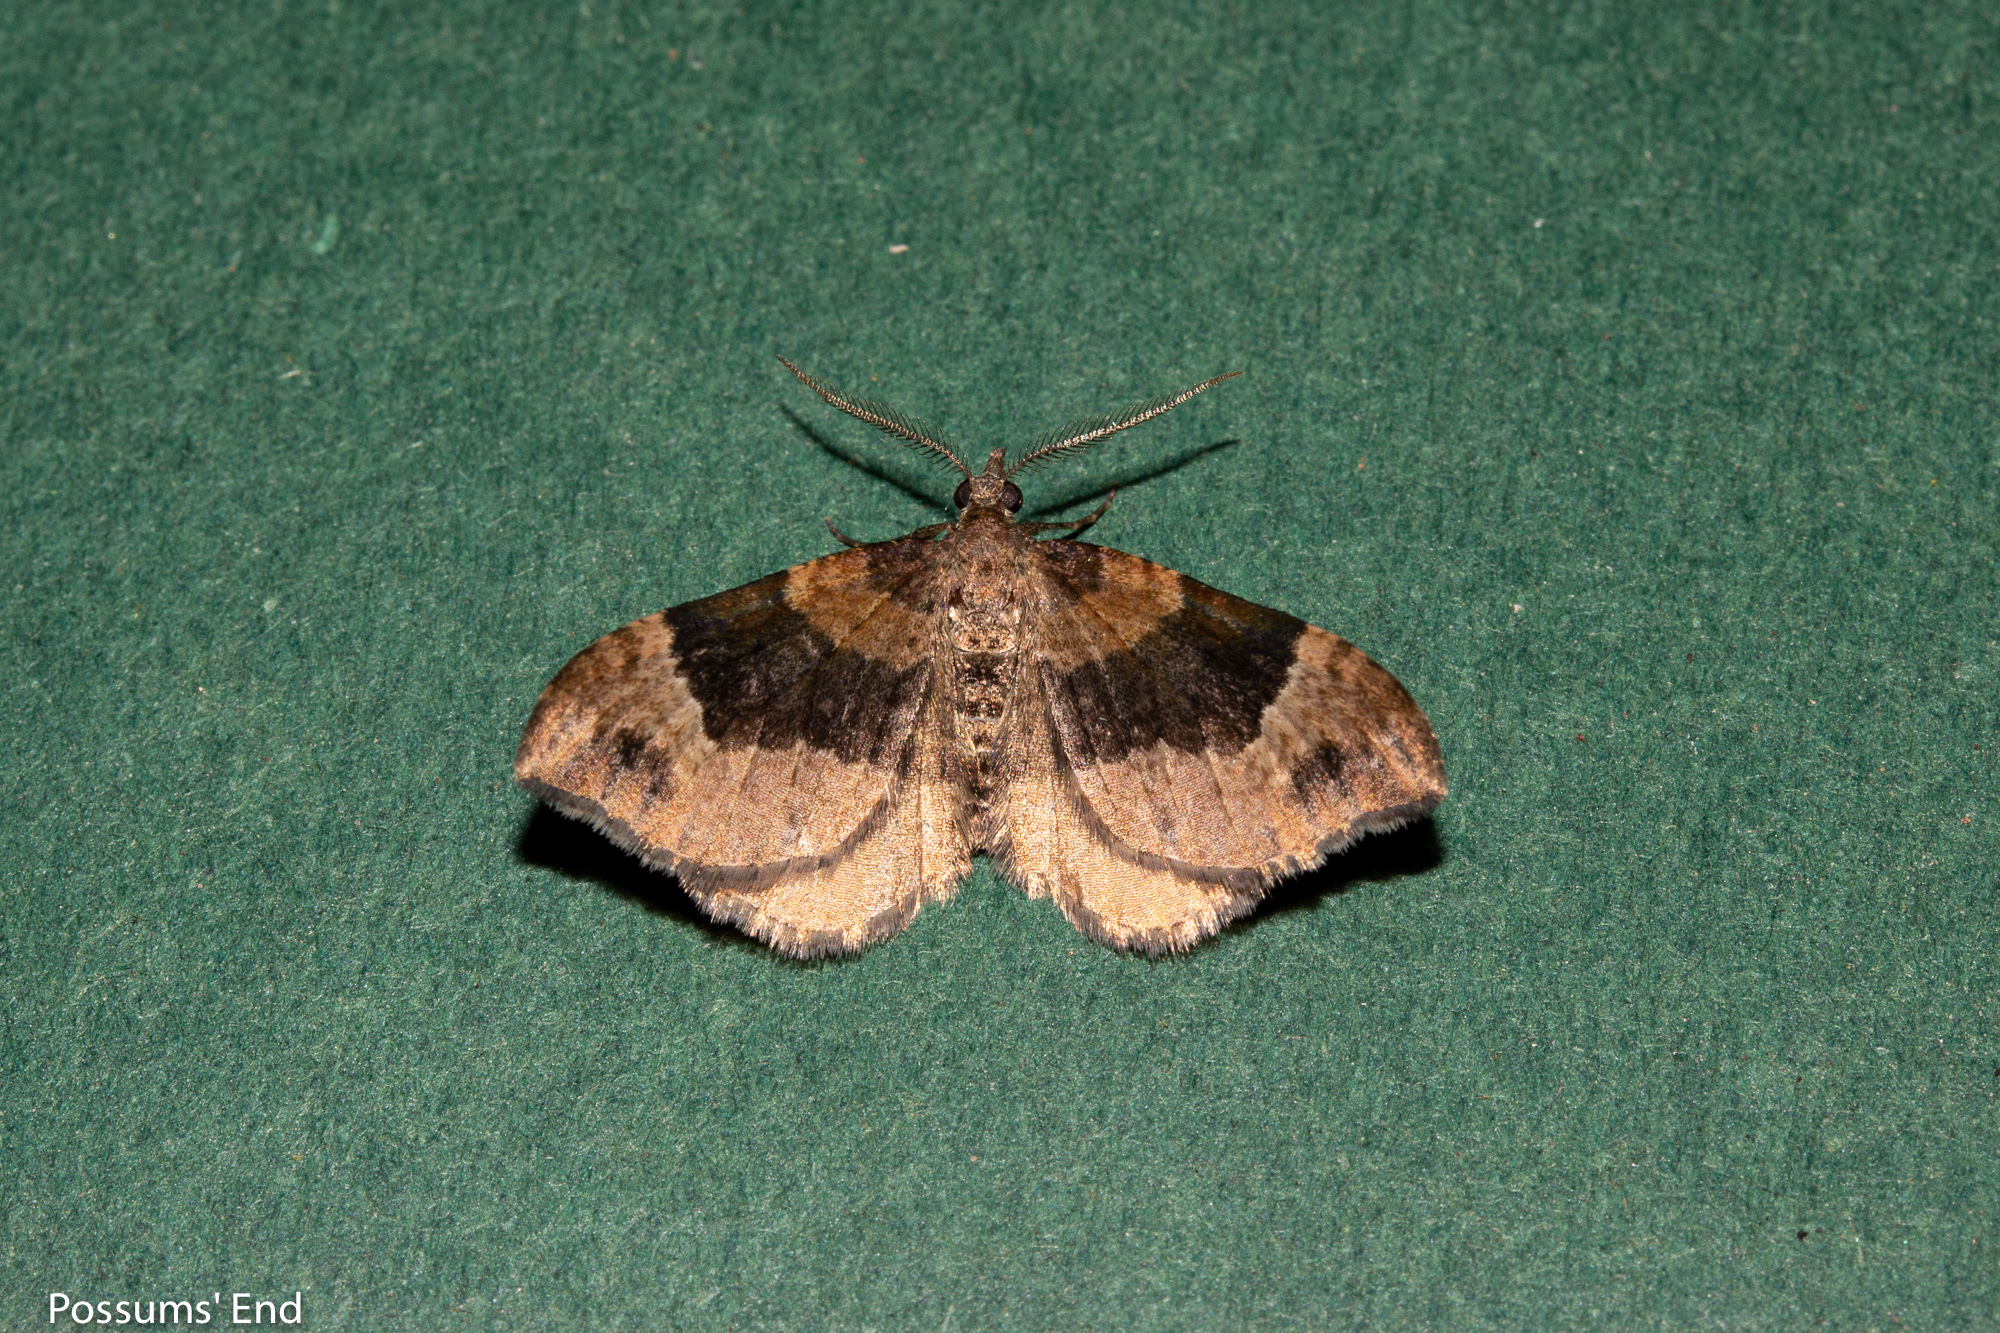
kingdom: Animalia
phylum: Arthropoda
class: Insecta
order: Lepidoptera
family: Geometridae
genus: Homodotis
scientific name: Homodotis megaspilata
